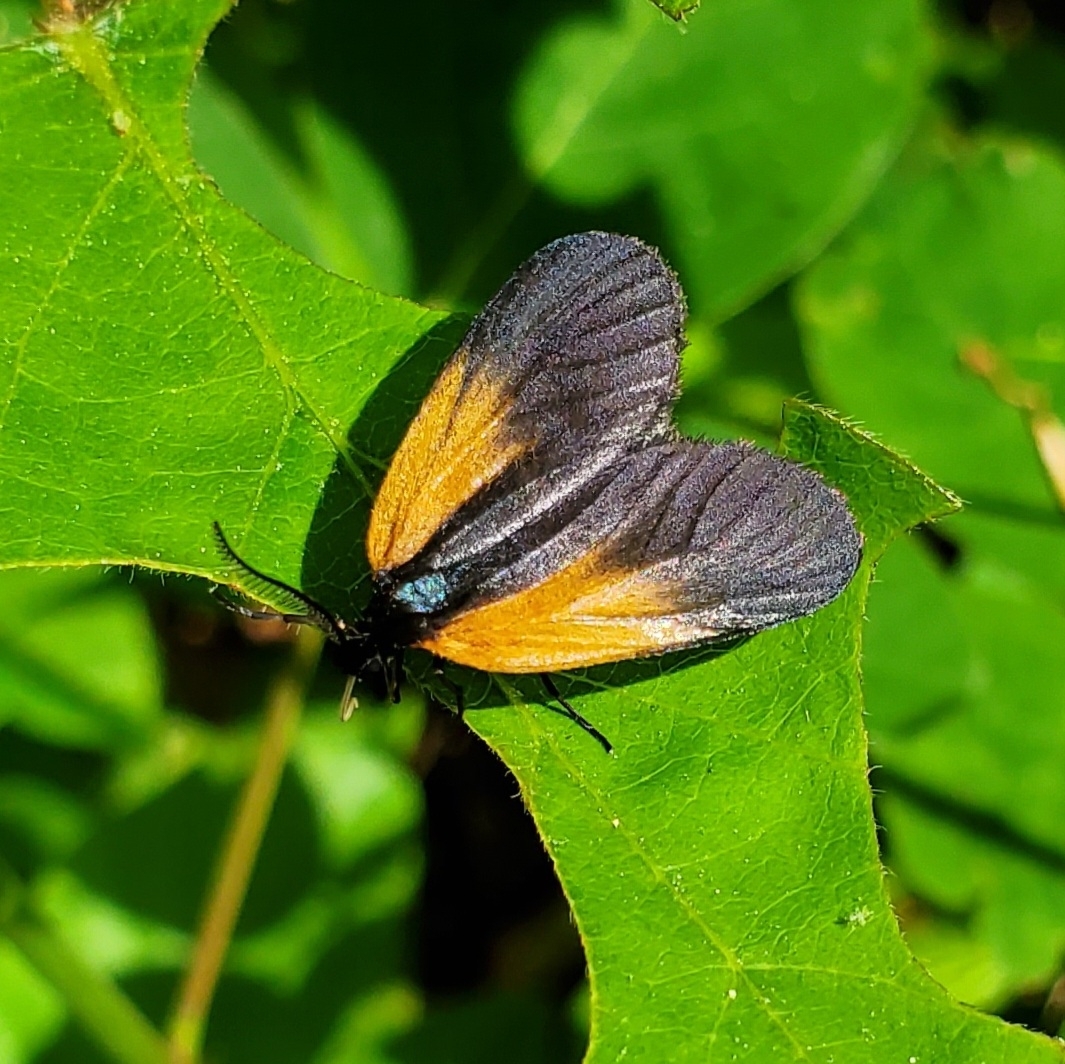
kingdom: Animalia
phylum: Arthropoda
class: Insecta
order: Lepidoptera
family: Zygaenidae
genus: Malthaca
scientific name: Malthaca dimidiata
